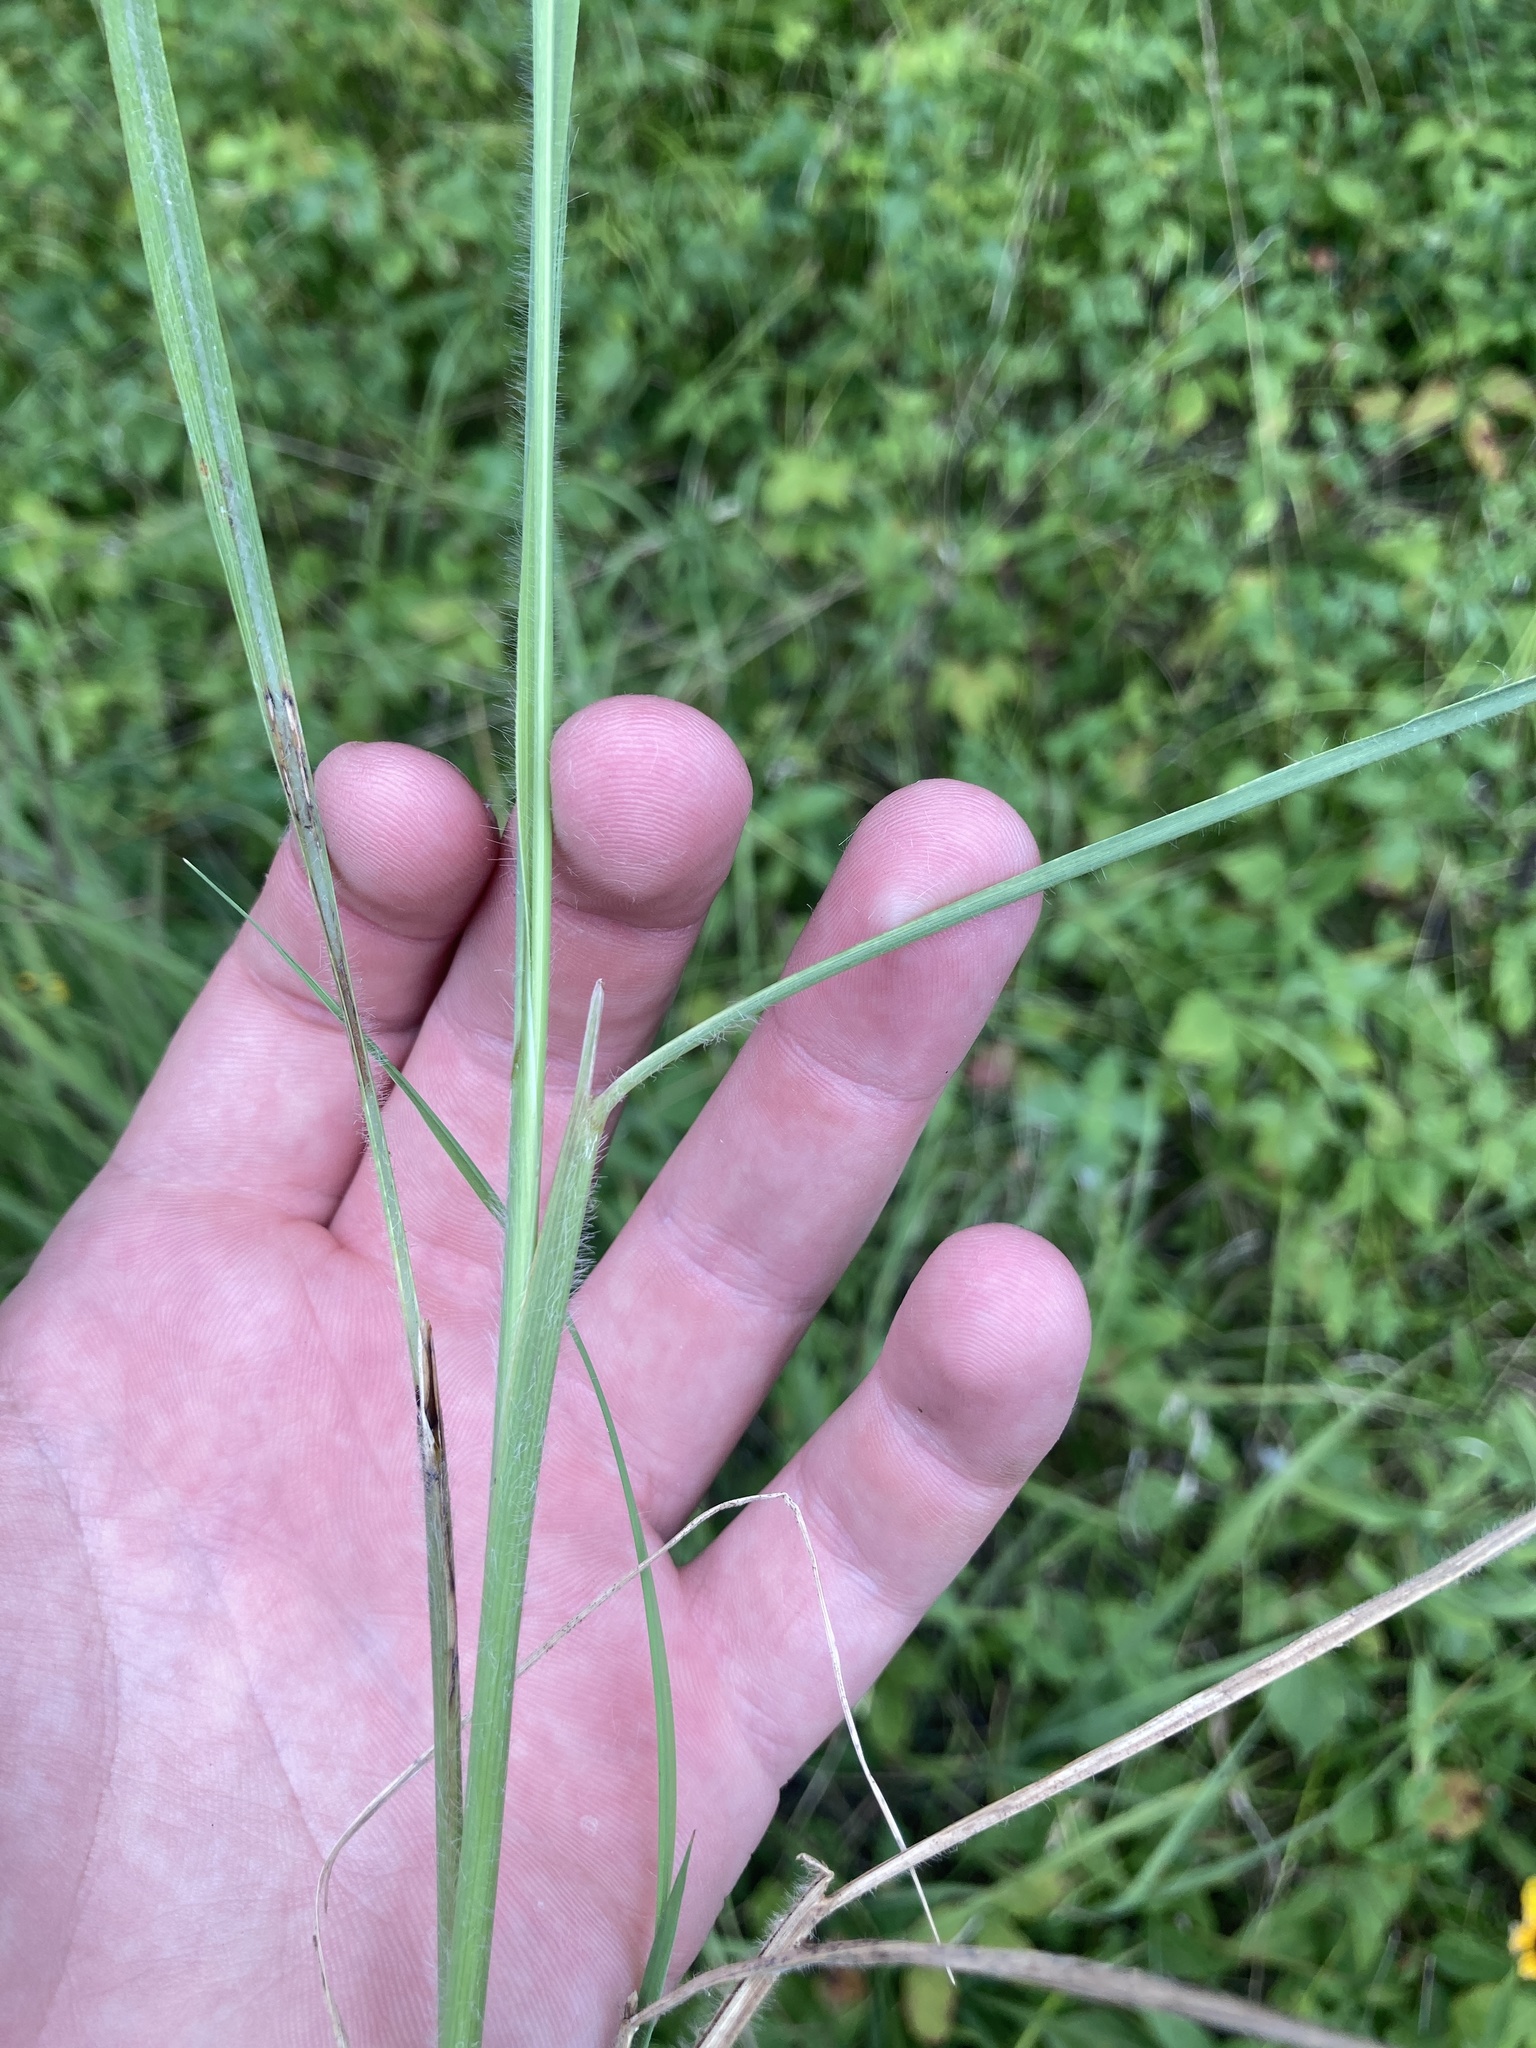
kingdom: Plantae
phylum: Tracheophyta
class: Liliopsida
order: Poales
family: Poaceae
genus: Sorghastrum
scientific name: Sorghastrum nutans
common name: Indian grass
